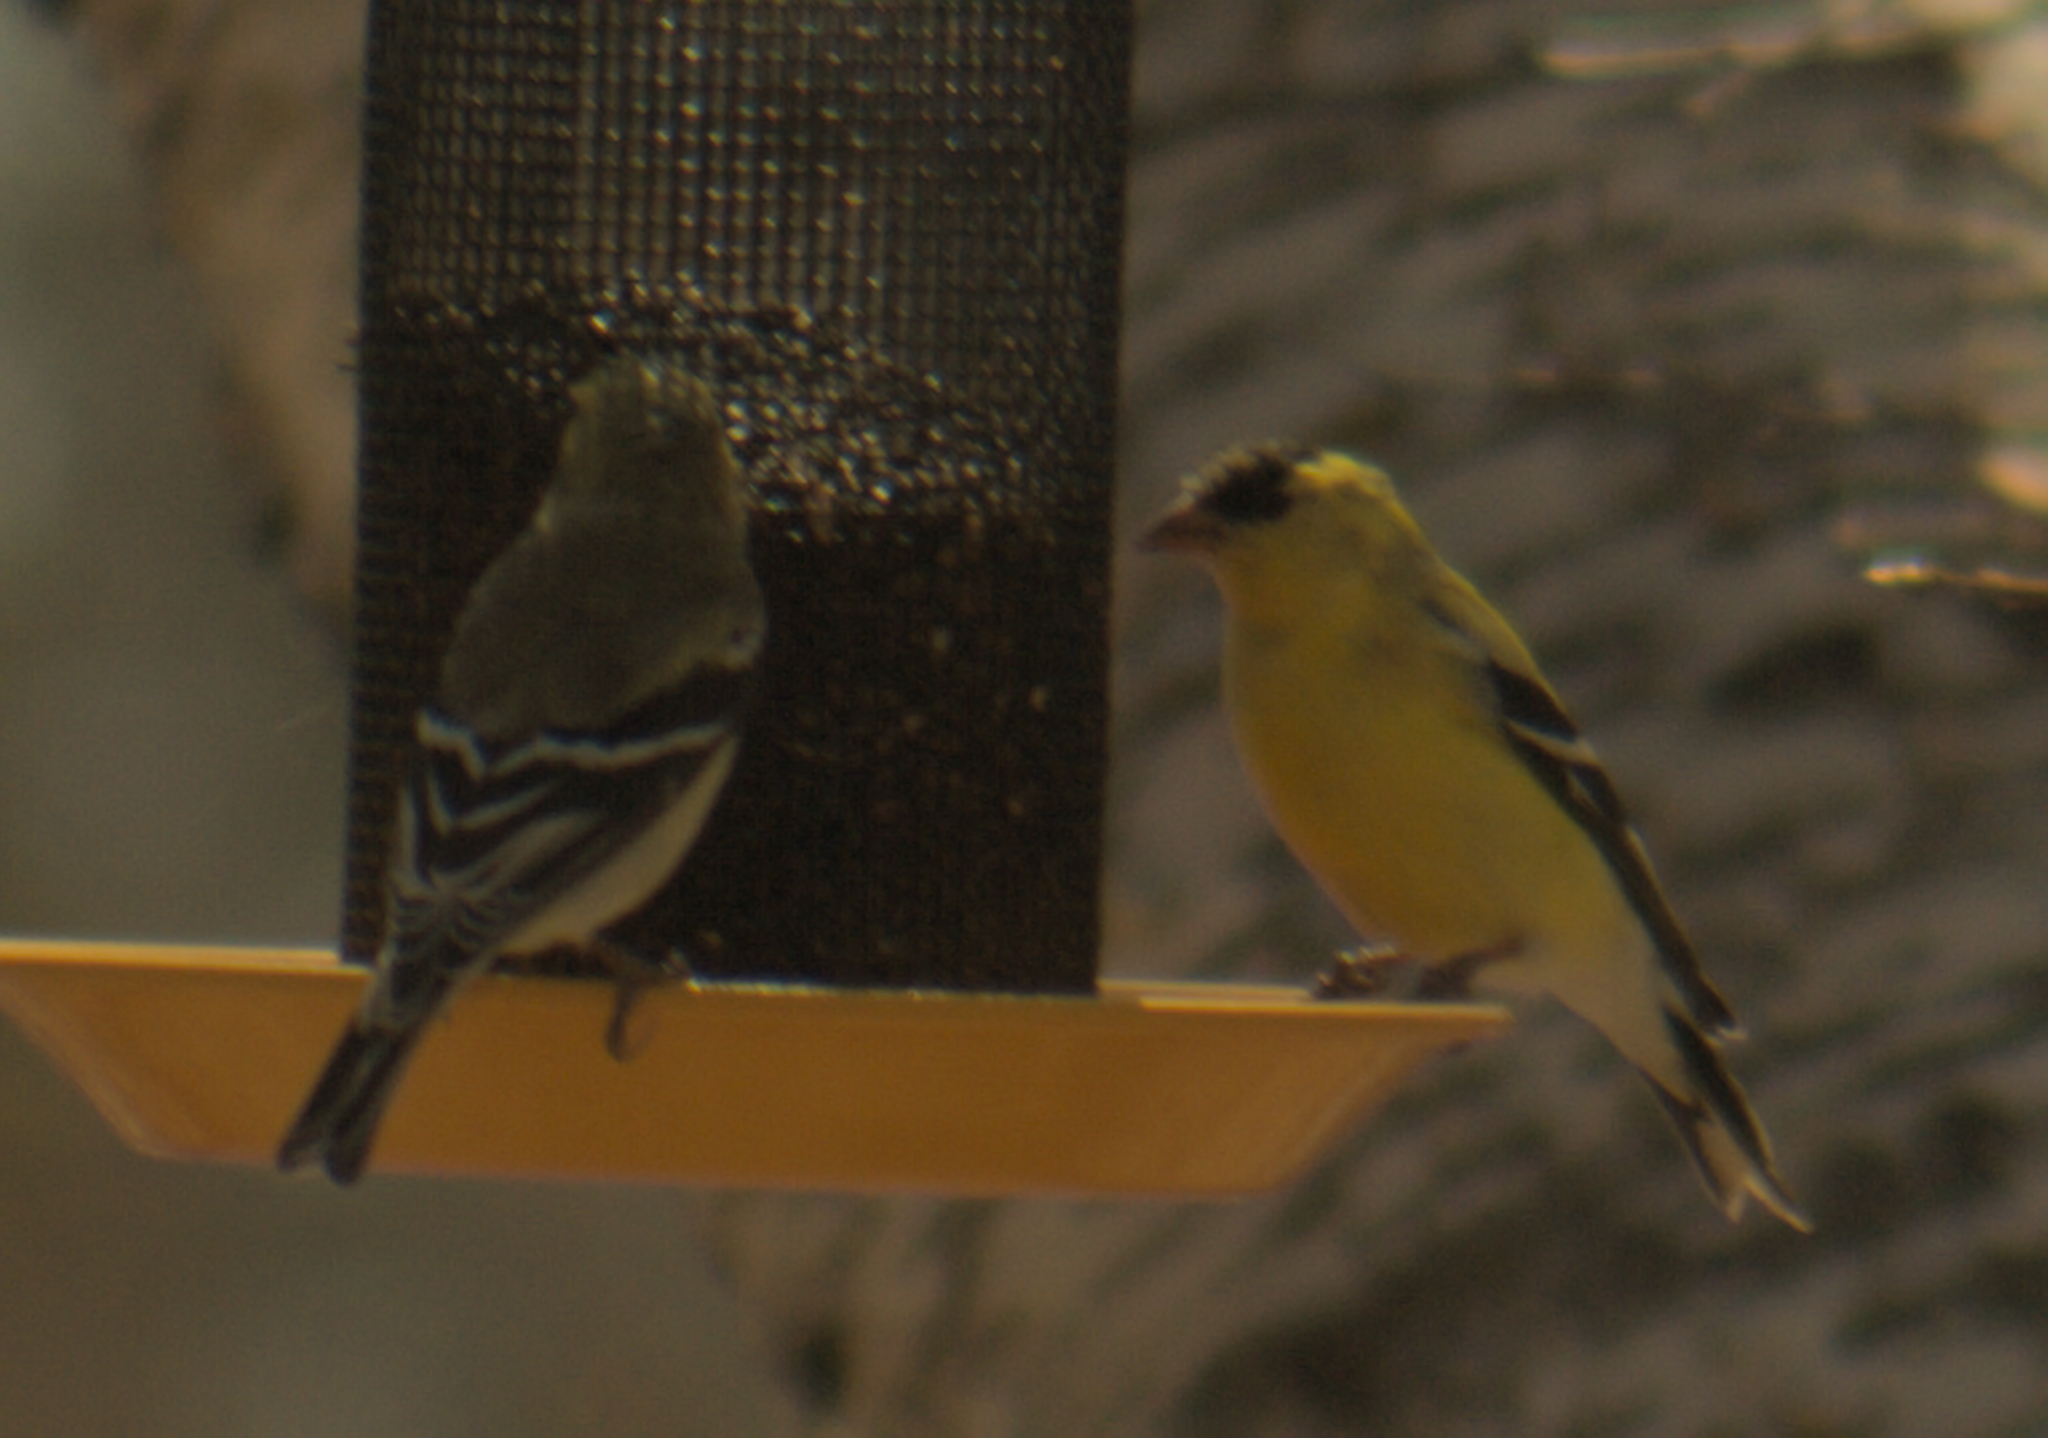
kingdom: Animalia
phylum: Chordata
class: Aves
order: Passeriformes
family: Fringillidae
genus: Spinus
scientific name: Spinus tristis
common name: American goldfinch
